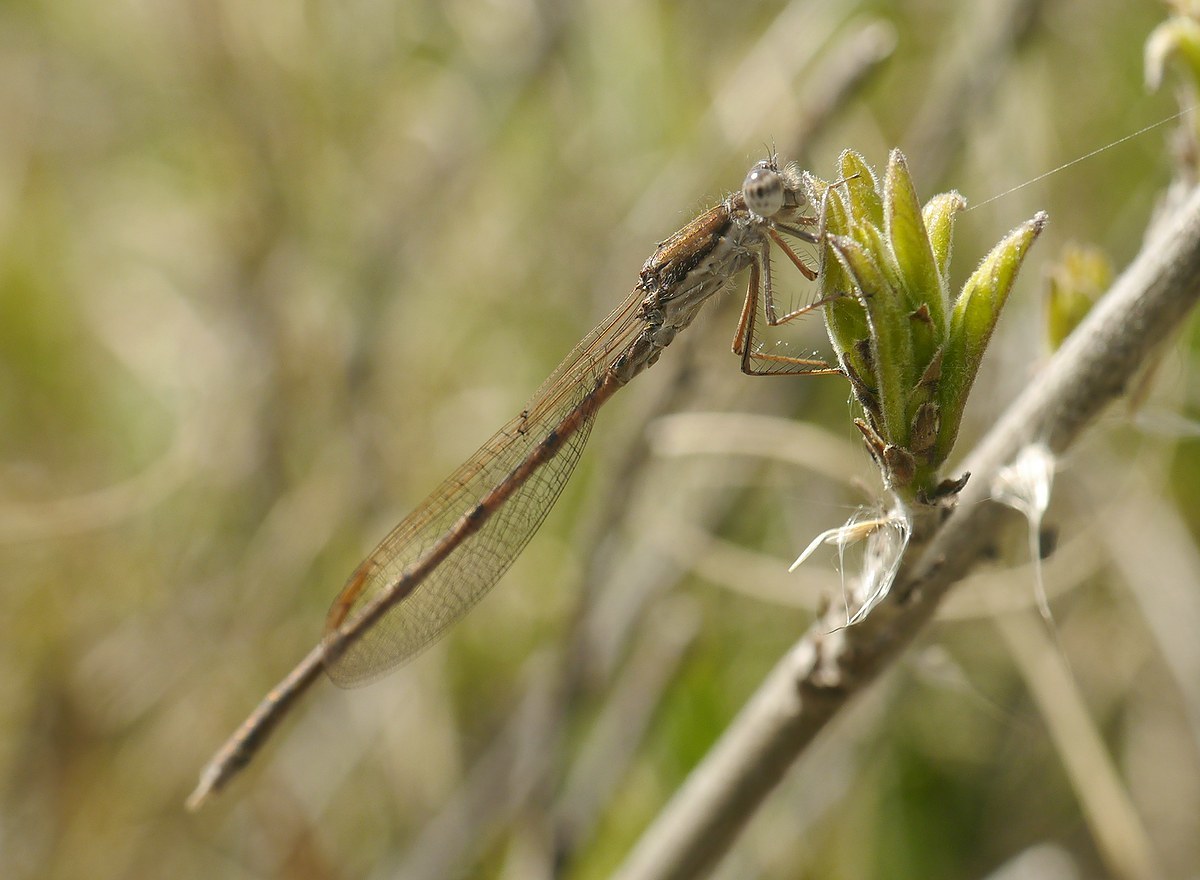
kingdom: Animalia
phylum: Arthropoda
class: Insecta
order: Odonata
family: Lestidae
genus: Sympecma
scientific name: Sympecma fusca
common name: Common winter damsel
